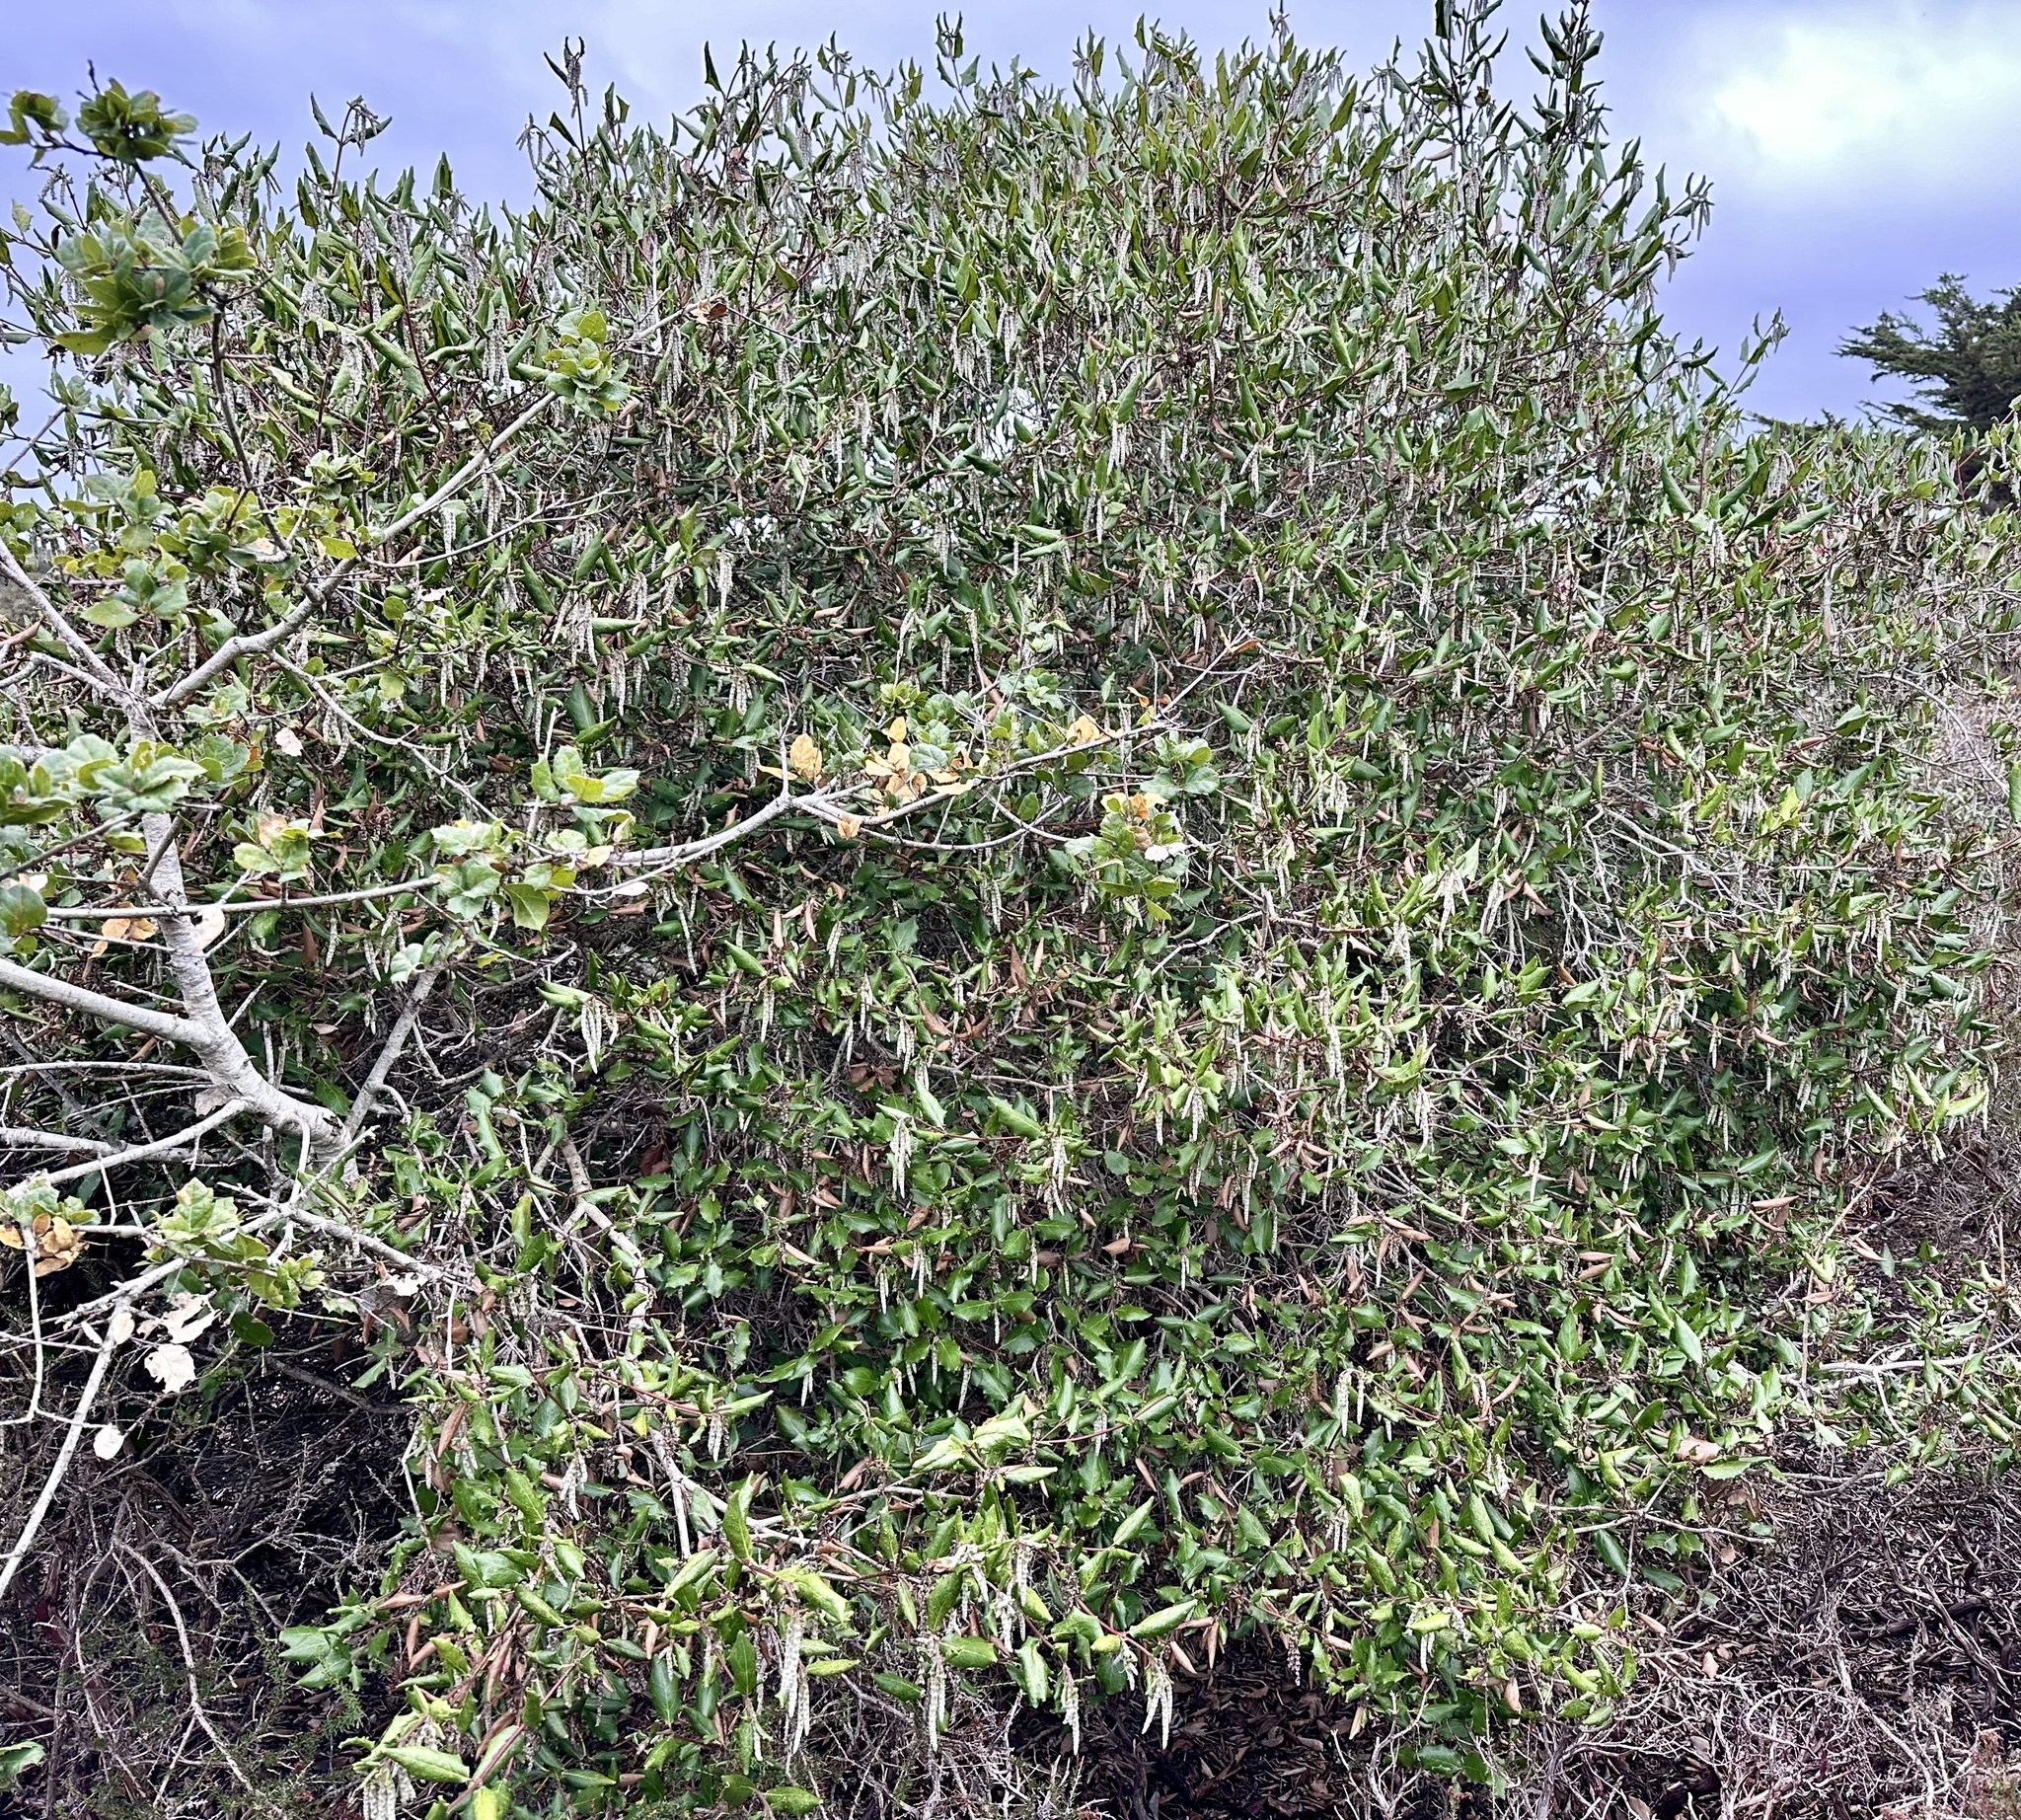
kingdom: Plantae
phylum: Tracheophyta
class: Magnoliopsida
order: Garryales
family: Garryaceae
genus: Garrya
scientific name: Garrya elliptica
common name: Silk-tassel
